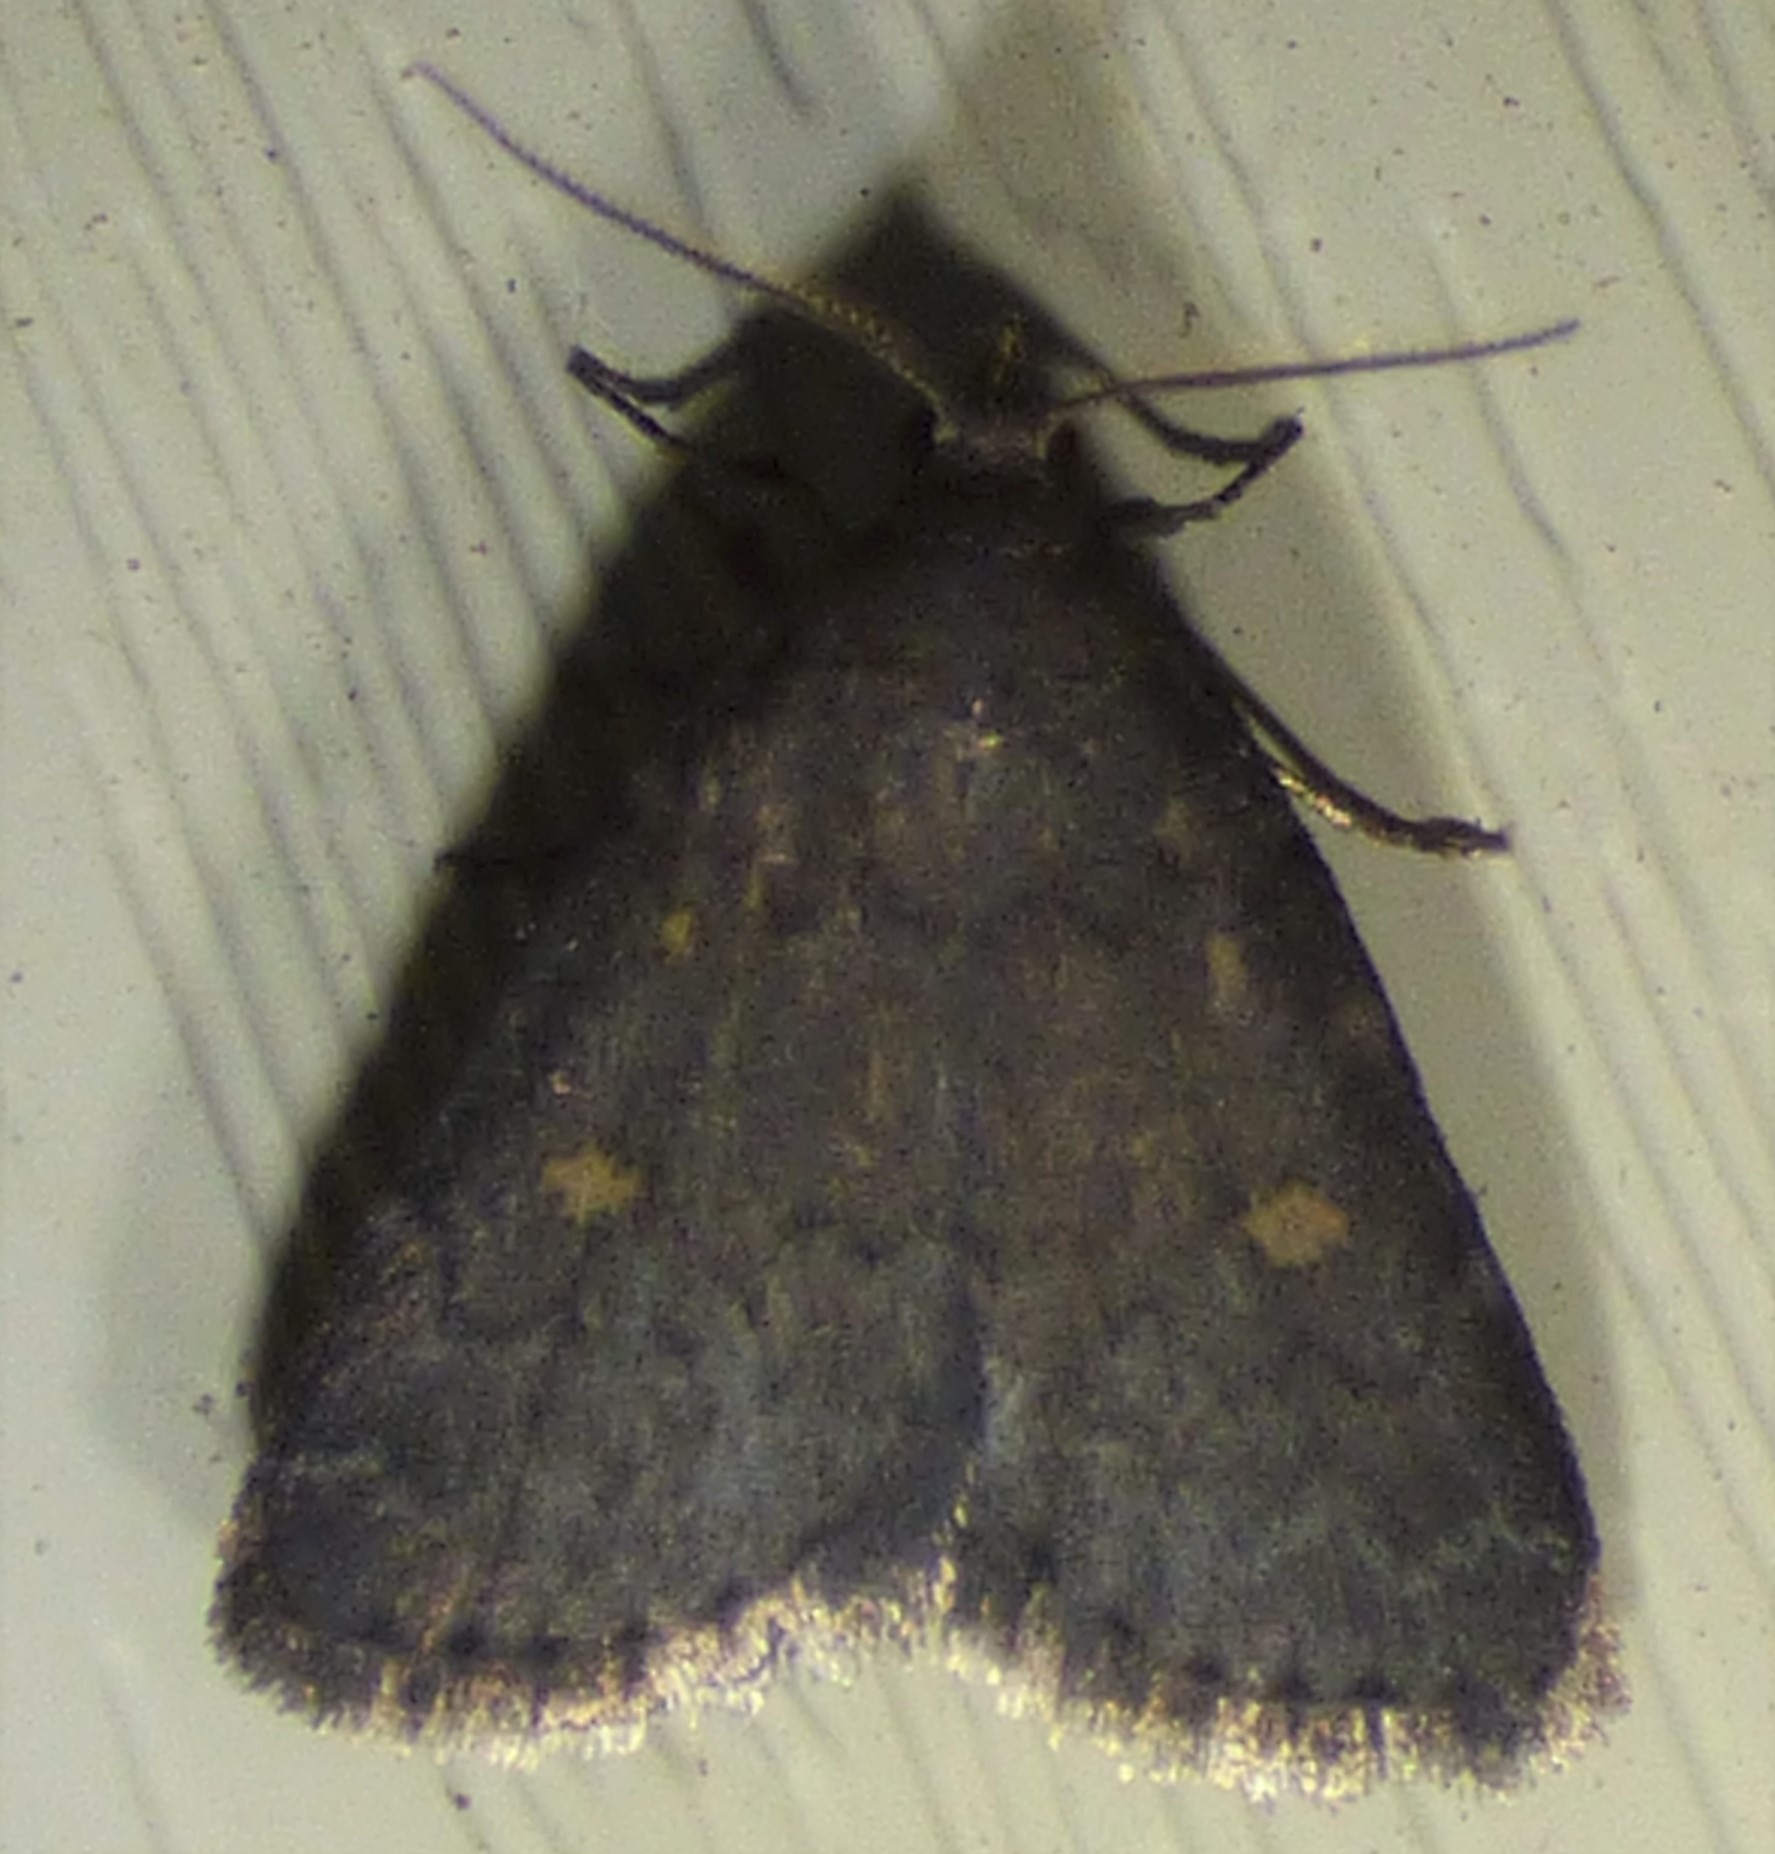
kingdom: Animalia
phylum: Arthropoda
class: Insecta
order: Lepidoptera
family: Erebidae
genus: Idia
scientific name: Idia diminuendis
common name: Orange-spotted idia moth
